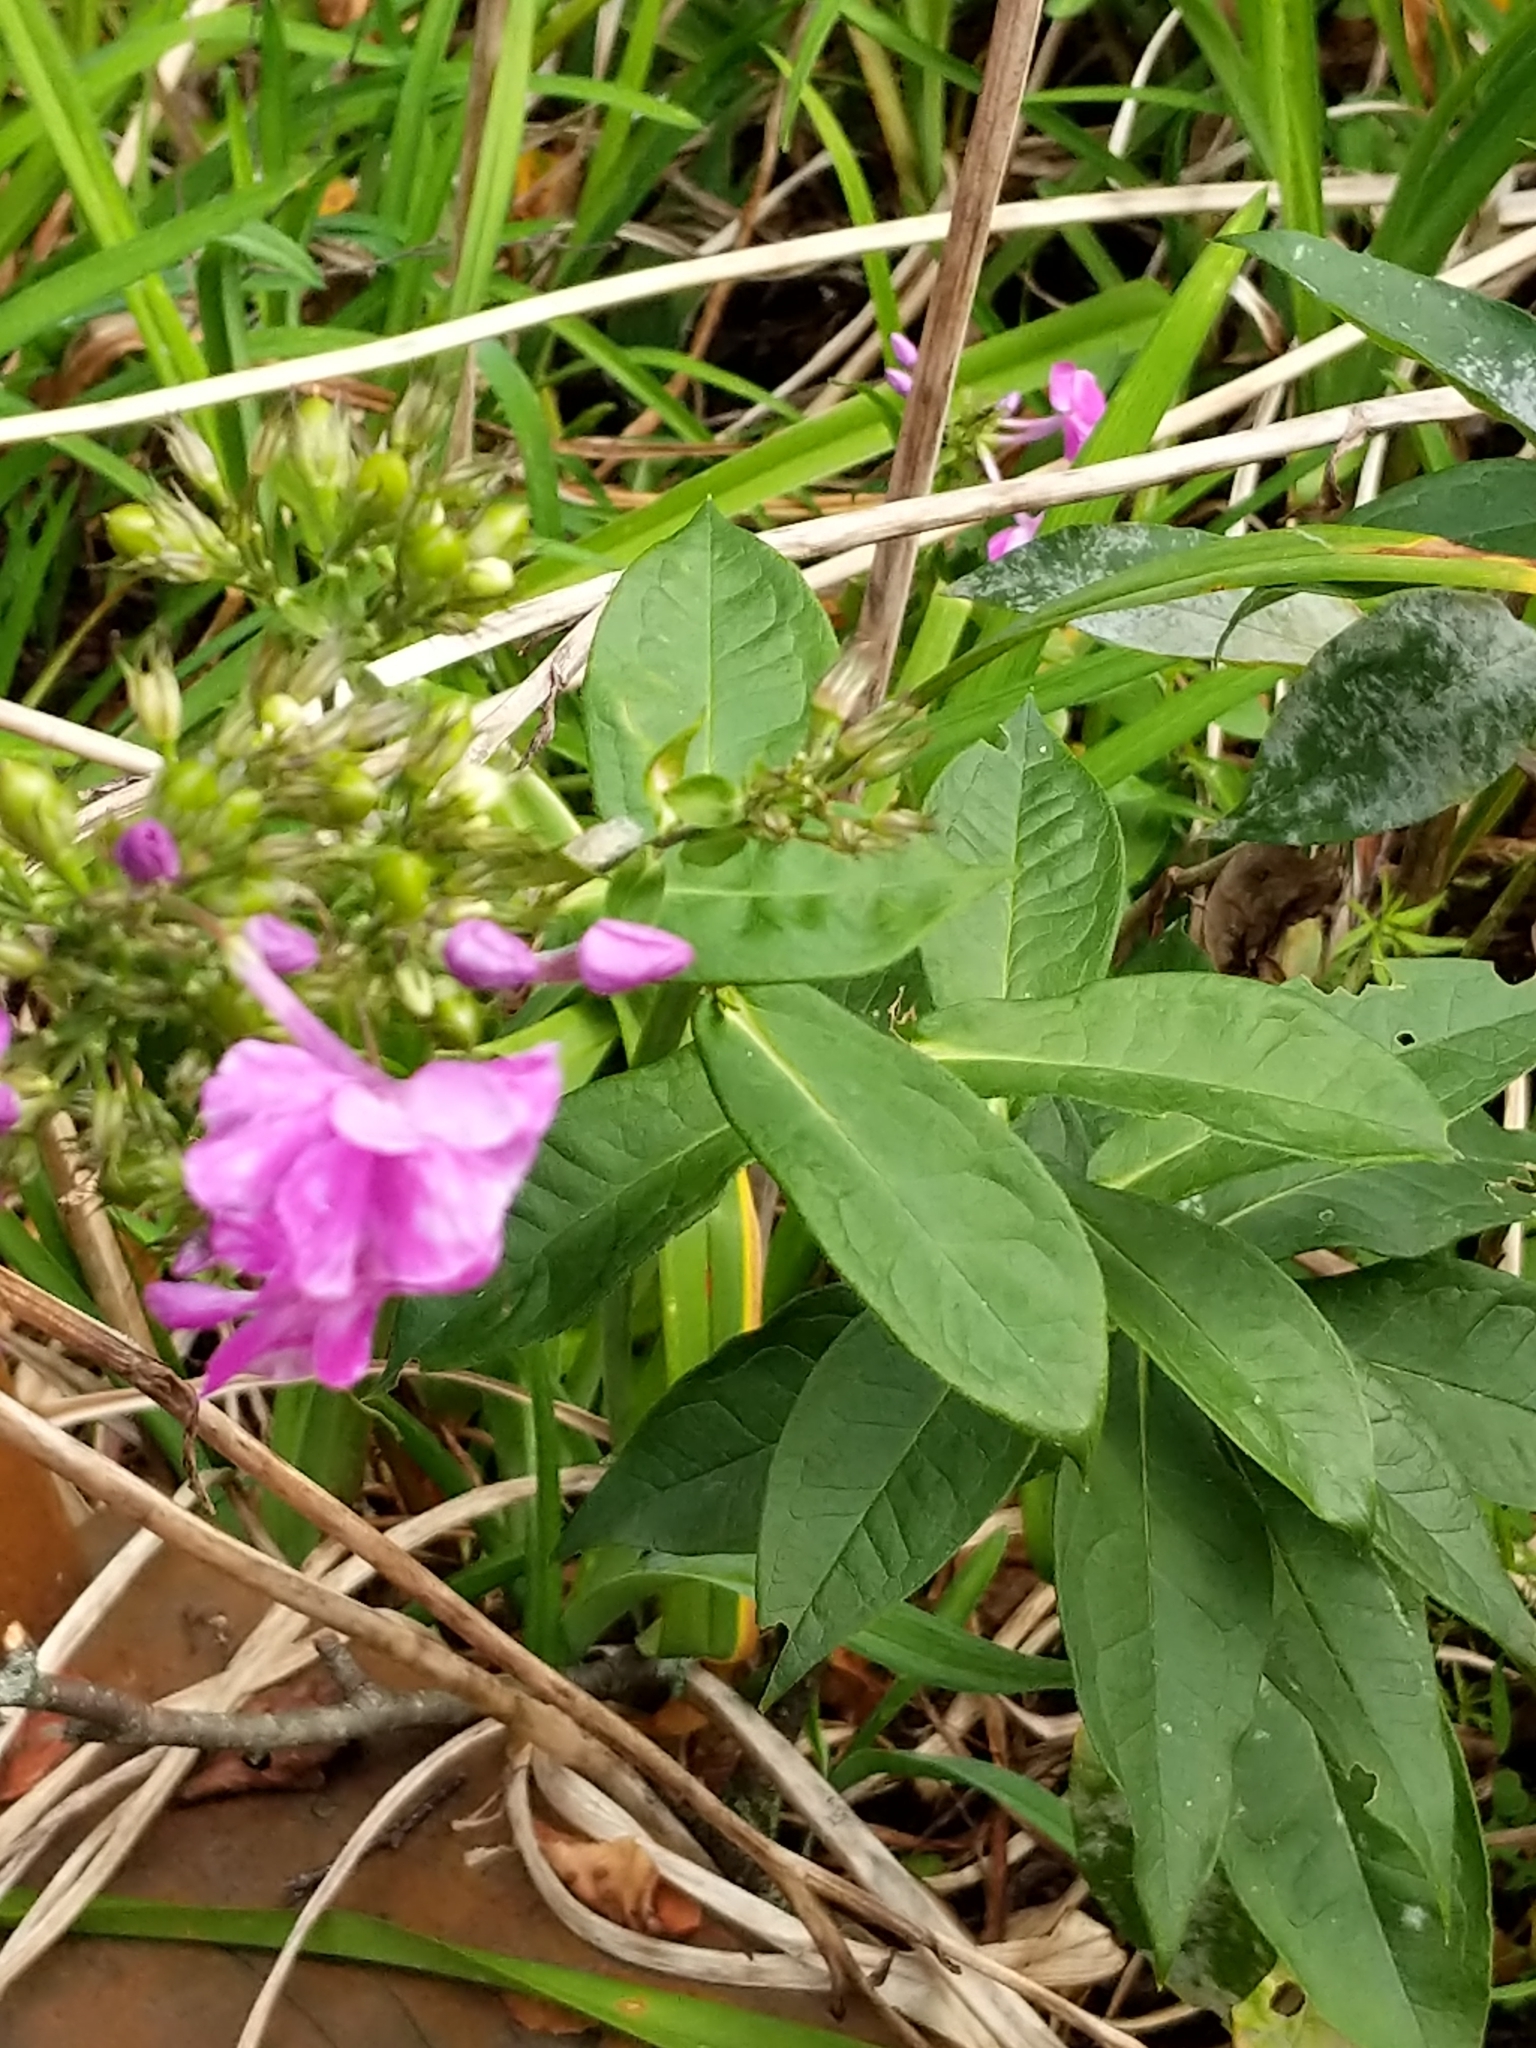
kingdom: Plantae
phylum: Tracheophyta
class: Magnoliopsida
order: Ericales
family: Polemoniaceae
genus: Phlox
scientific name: Phlox paniculata
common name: Fall phlox
